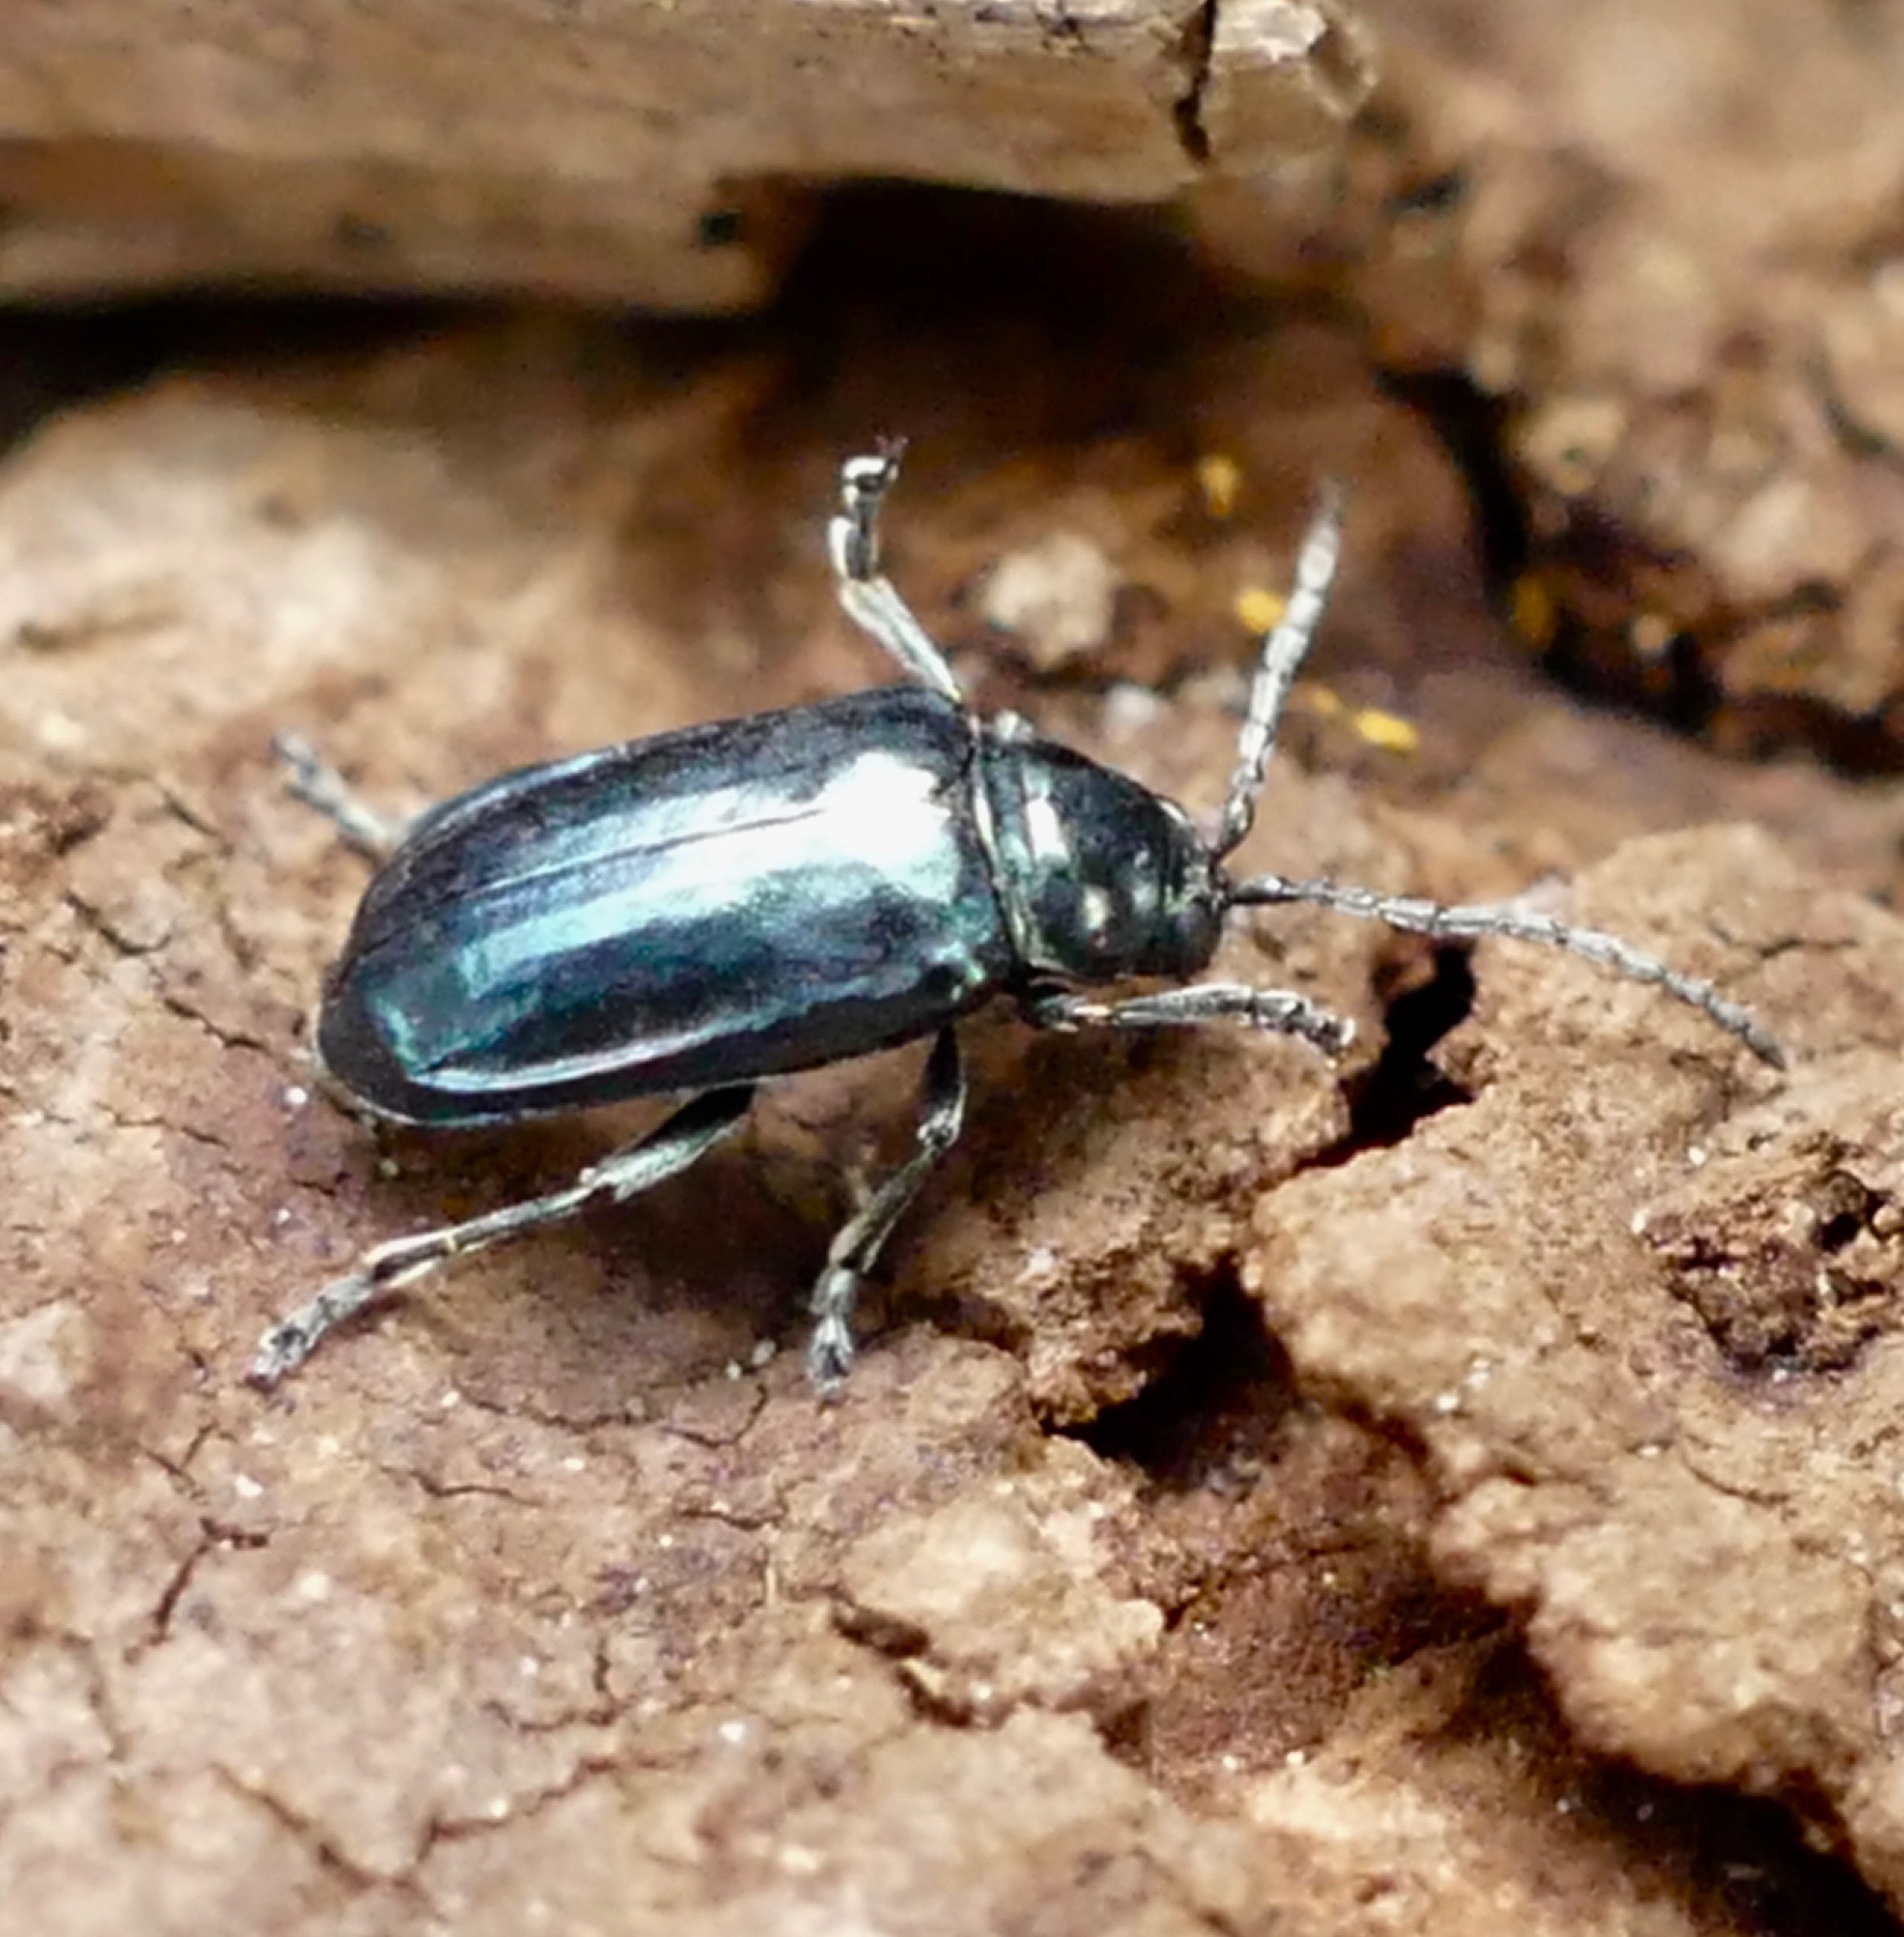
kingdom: Animalia
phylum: Arthropoda
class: Insecta
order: Coleoptera
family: Chrysomelidae
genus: Altica
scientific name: Altica ambiens
